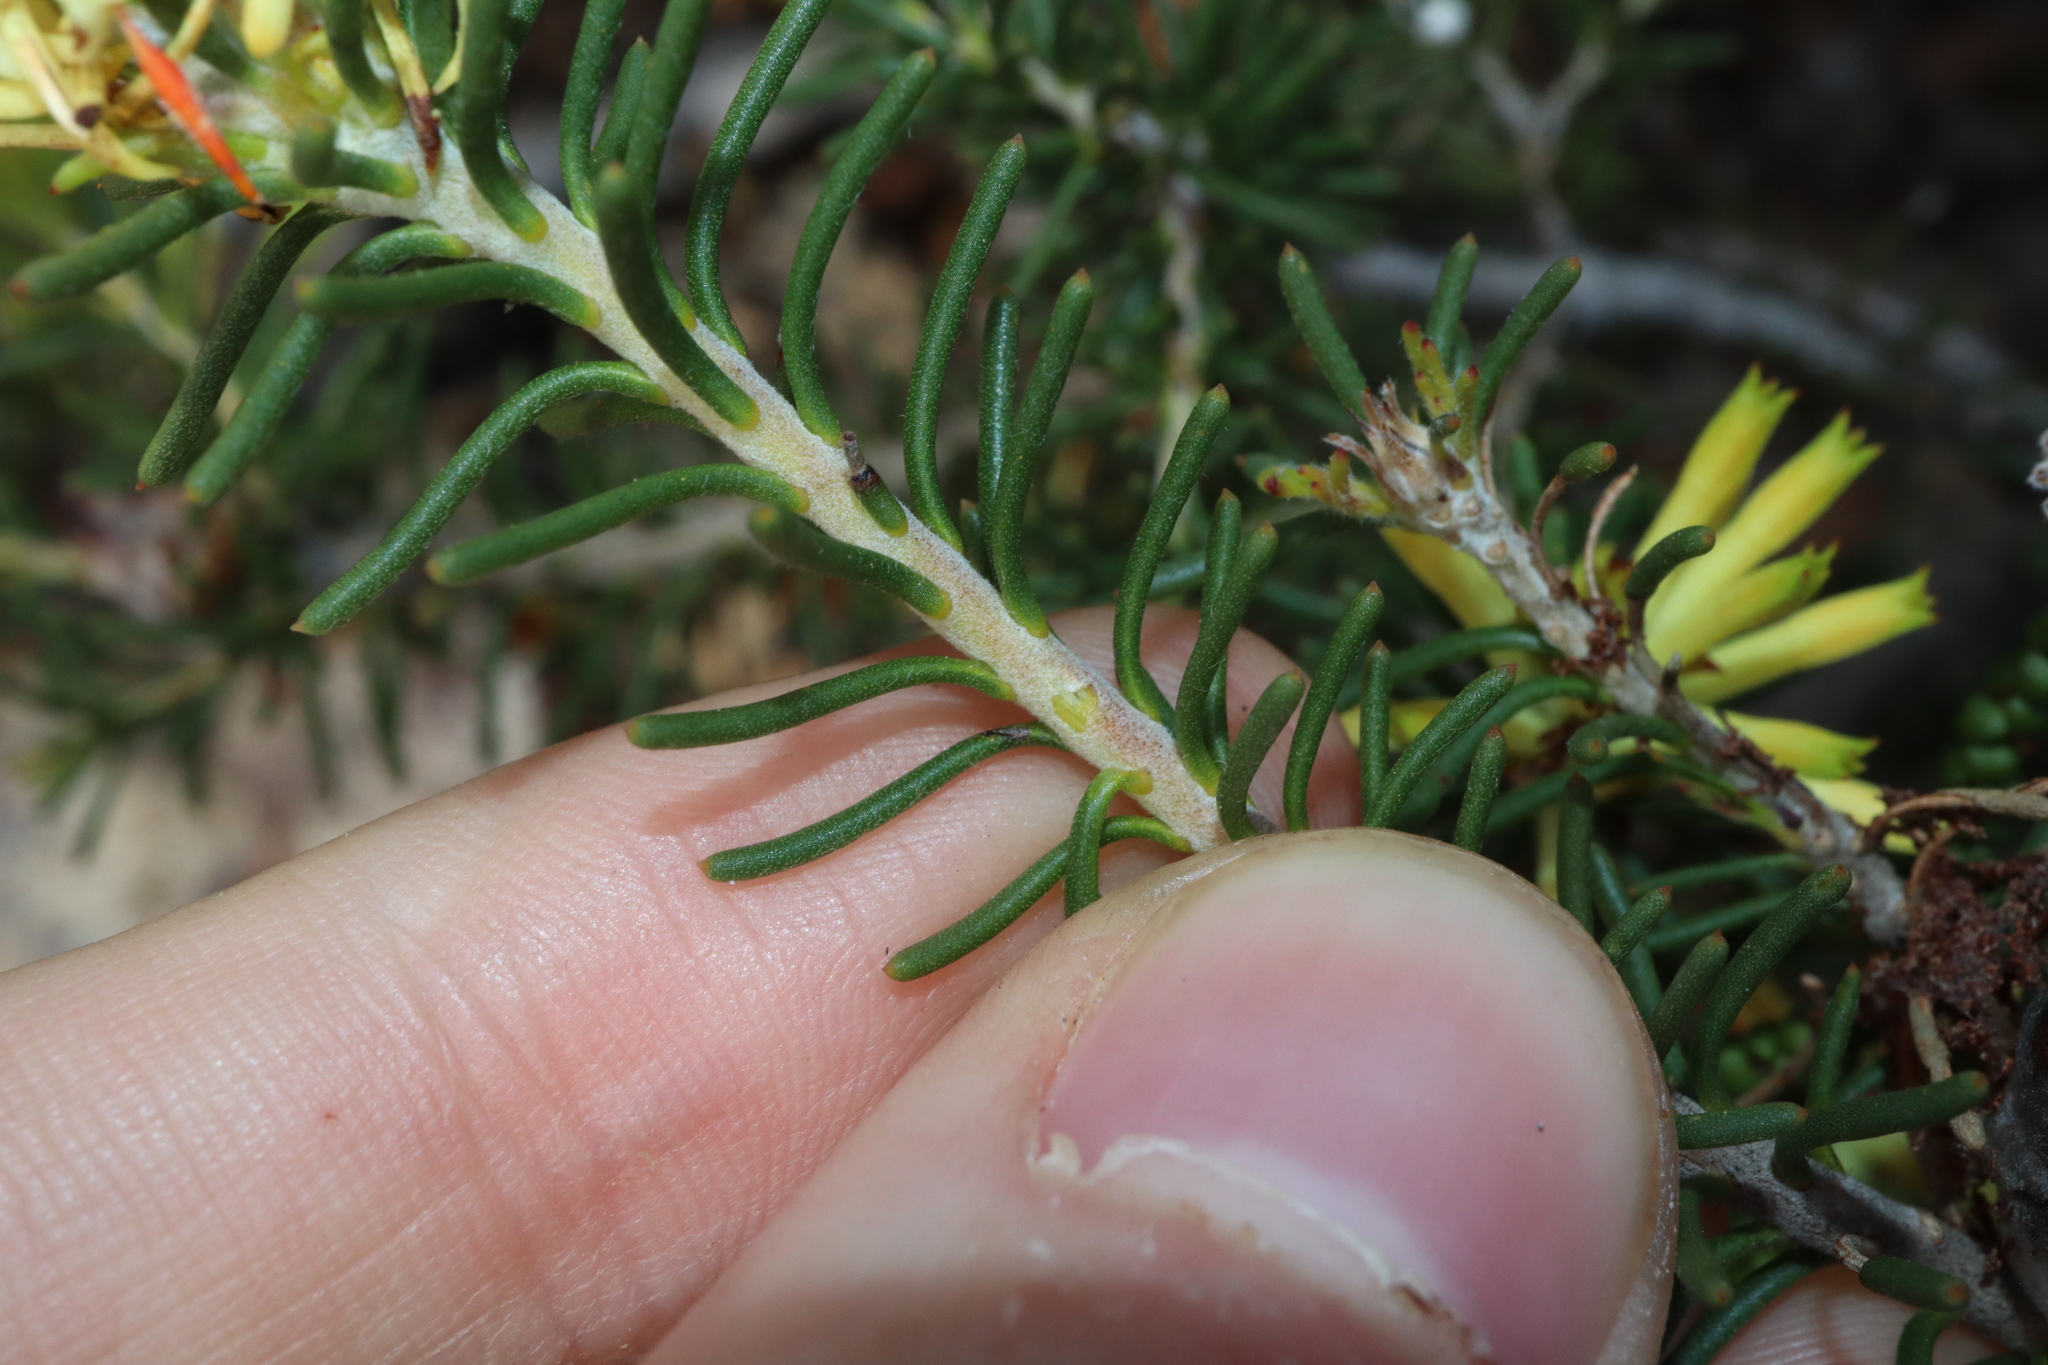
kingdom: Plantae
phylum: Tracheophyta
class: Magnoliopsida
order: Proteales
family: Proteaceae
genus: Petrophile
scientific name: Petrophile phylicoides
